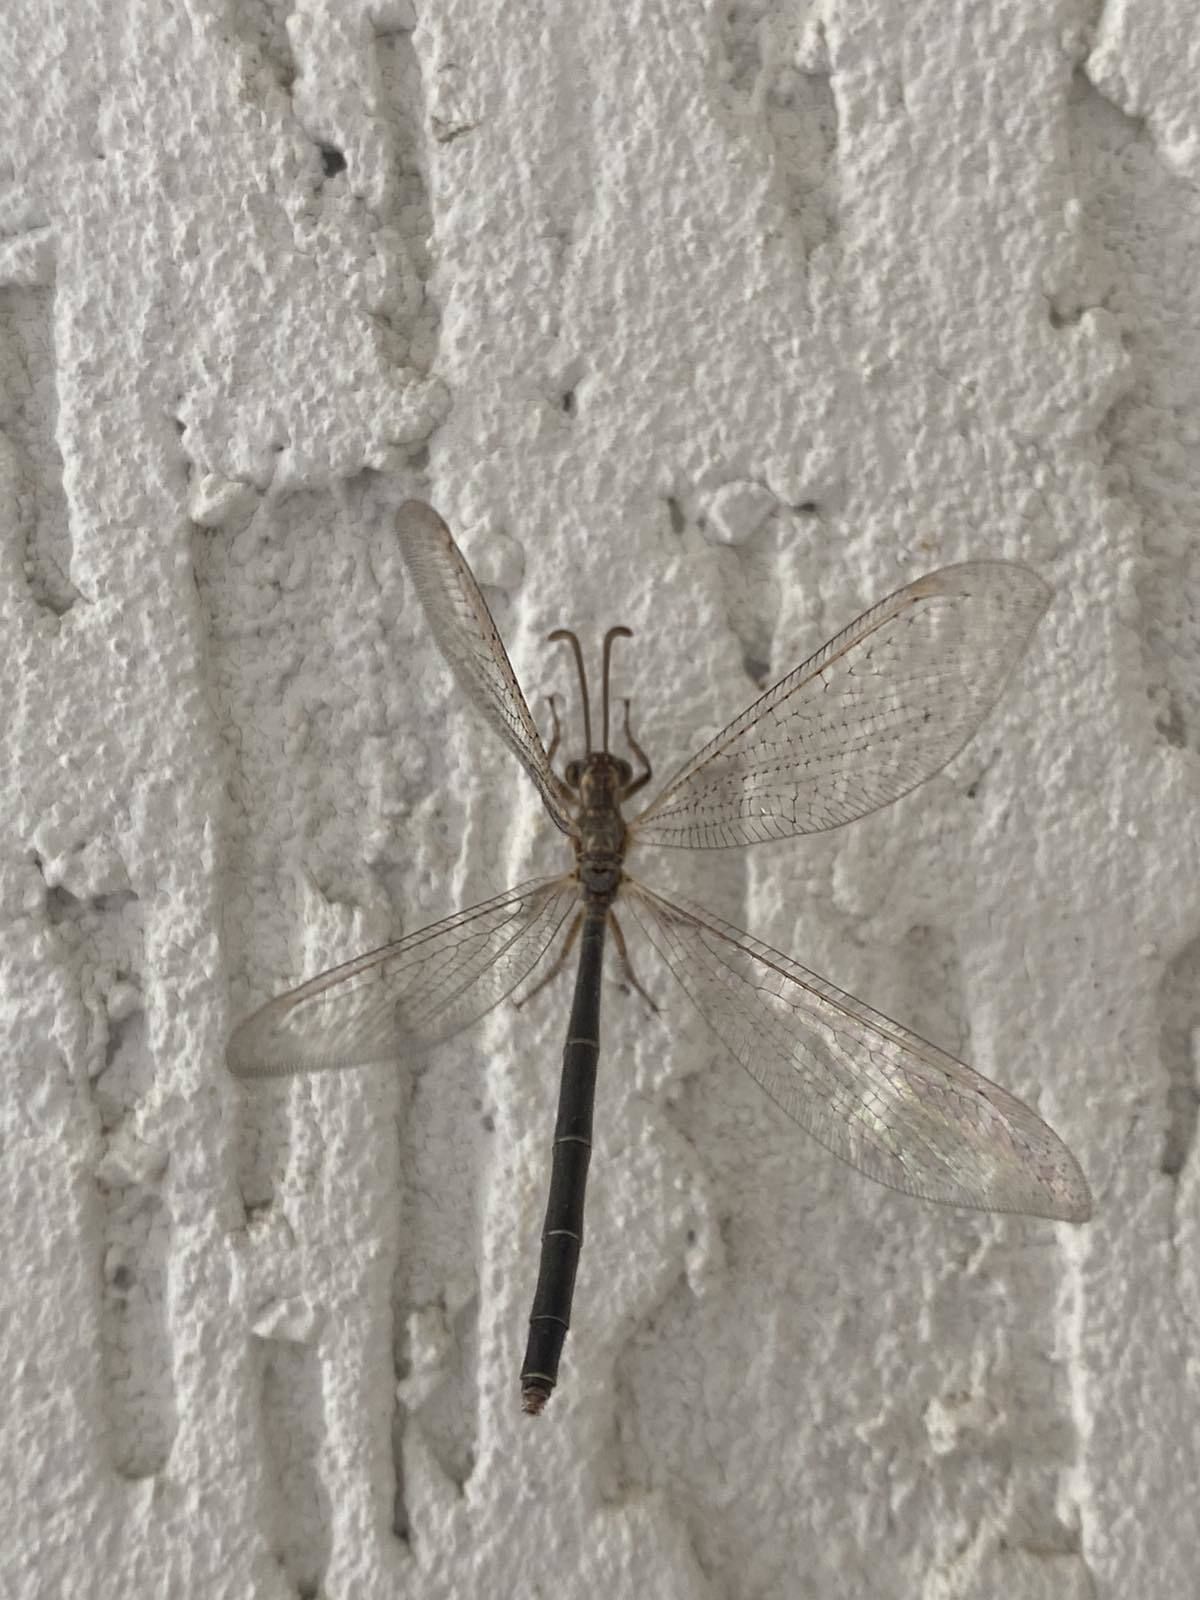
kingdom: Animalia
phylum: Arthropoda
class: Insecta
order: Neuroptera
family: Myrmeleontidae
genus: Creoleon
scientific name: Creoleon plumbeus
